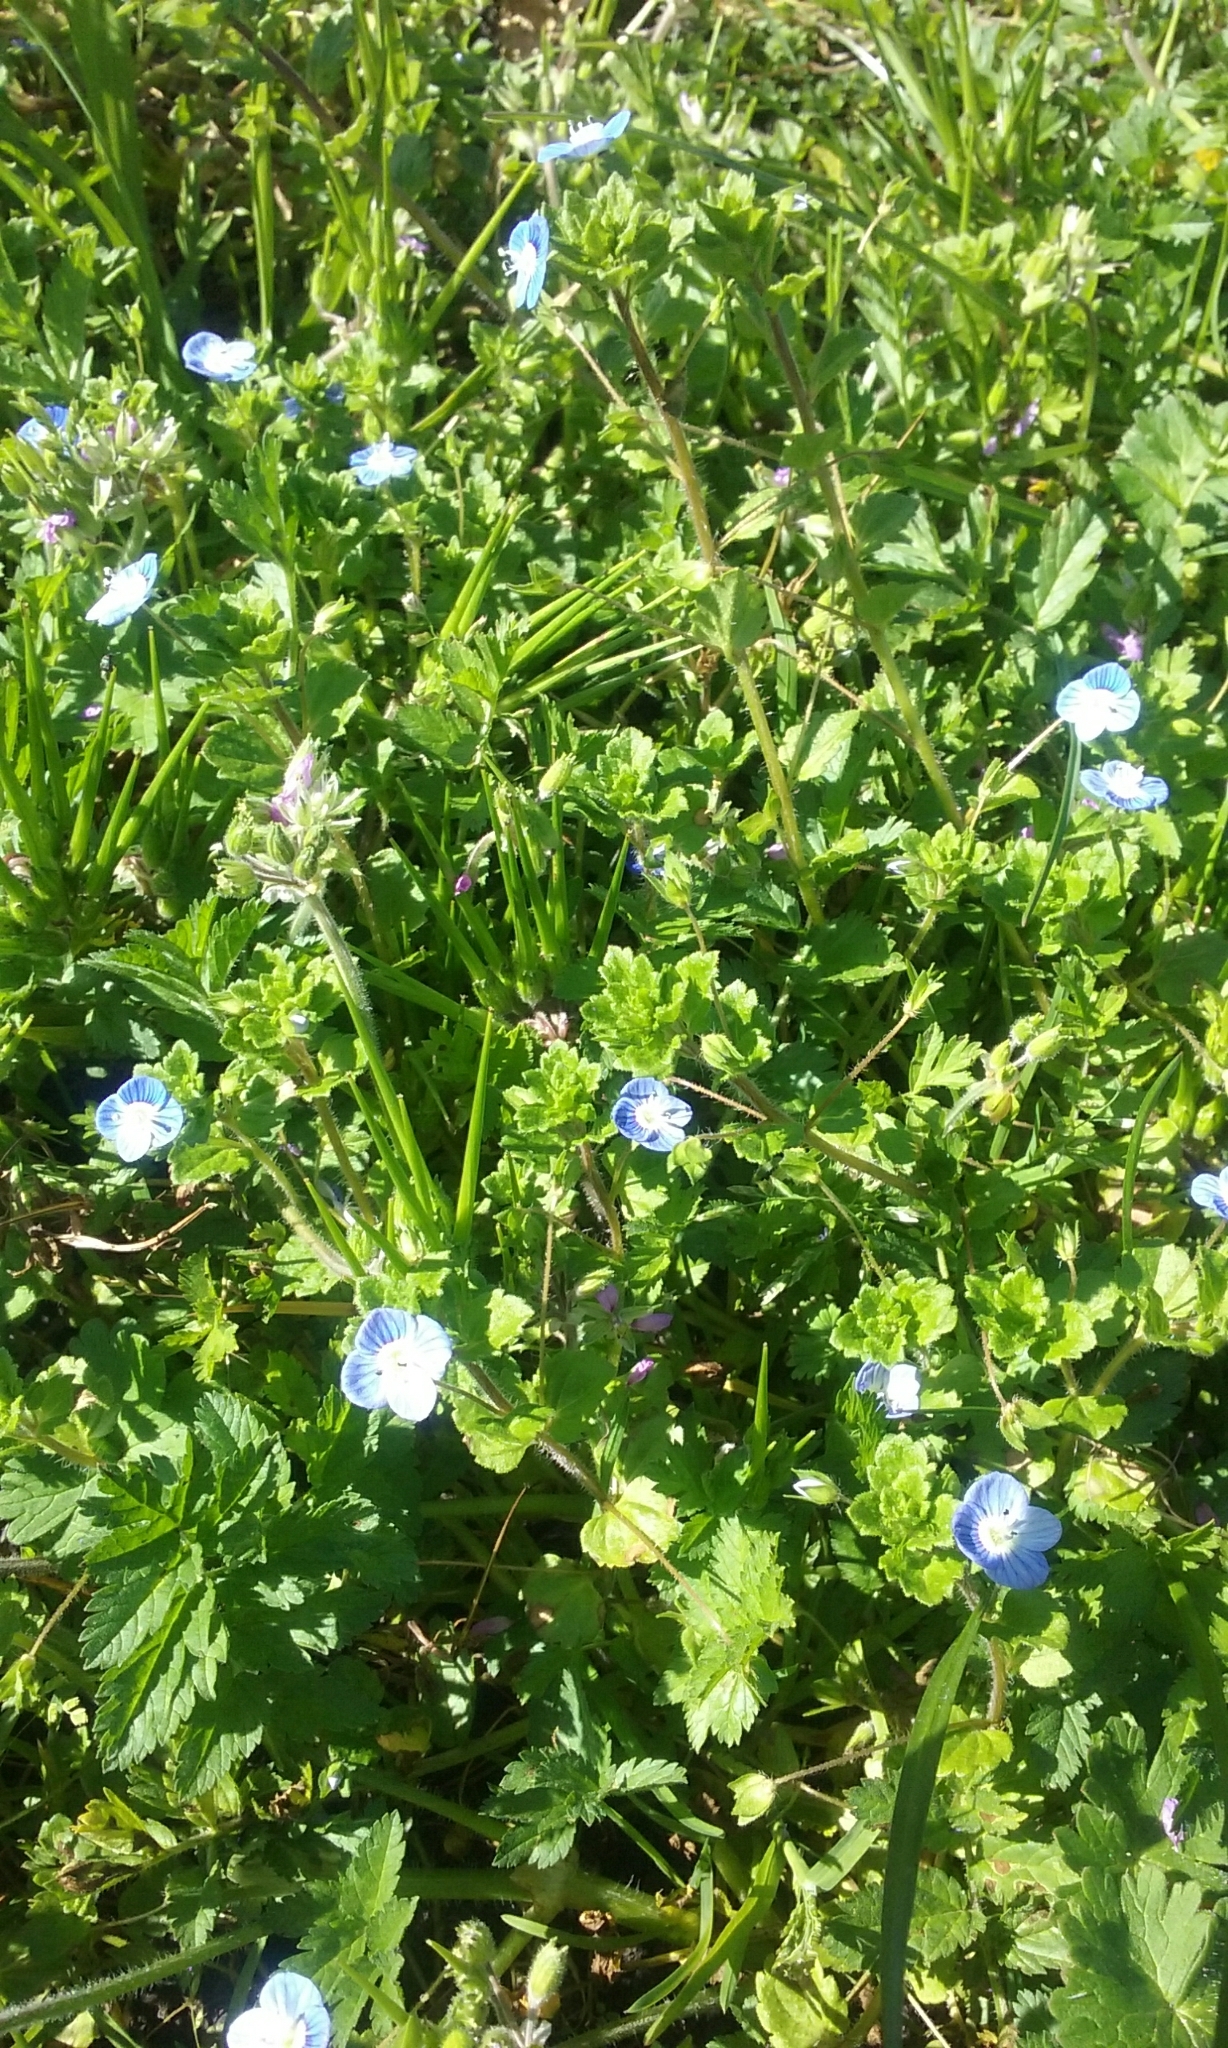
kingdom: Plantae
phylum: Tracheophyta
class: Magnoliopsida
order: Lamiales
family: Plantaginaceae
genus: Veronica
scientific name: Veronica persica
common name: Common field-speedwell
